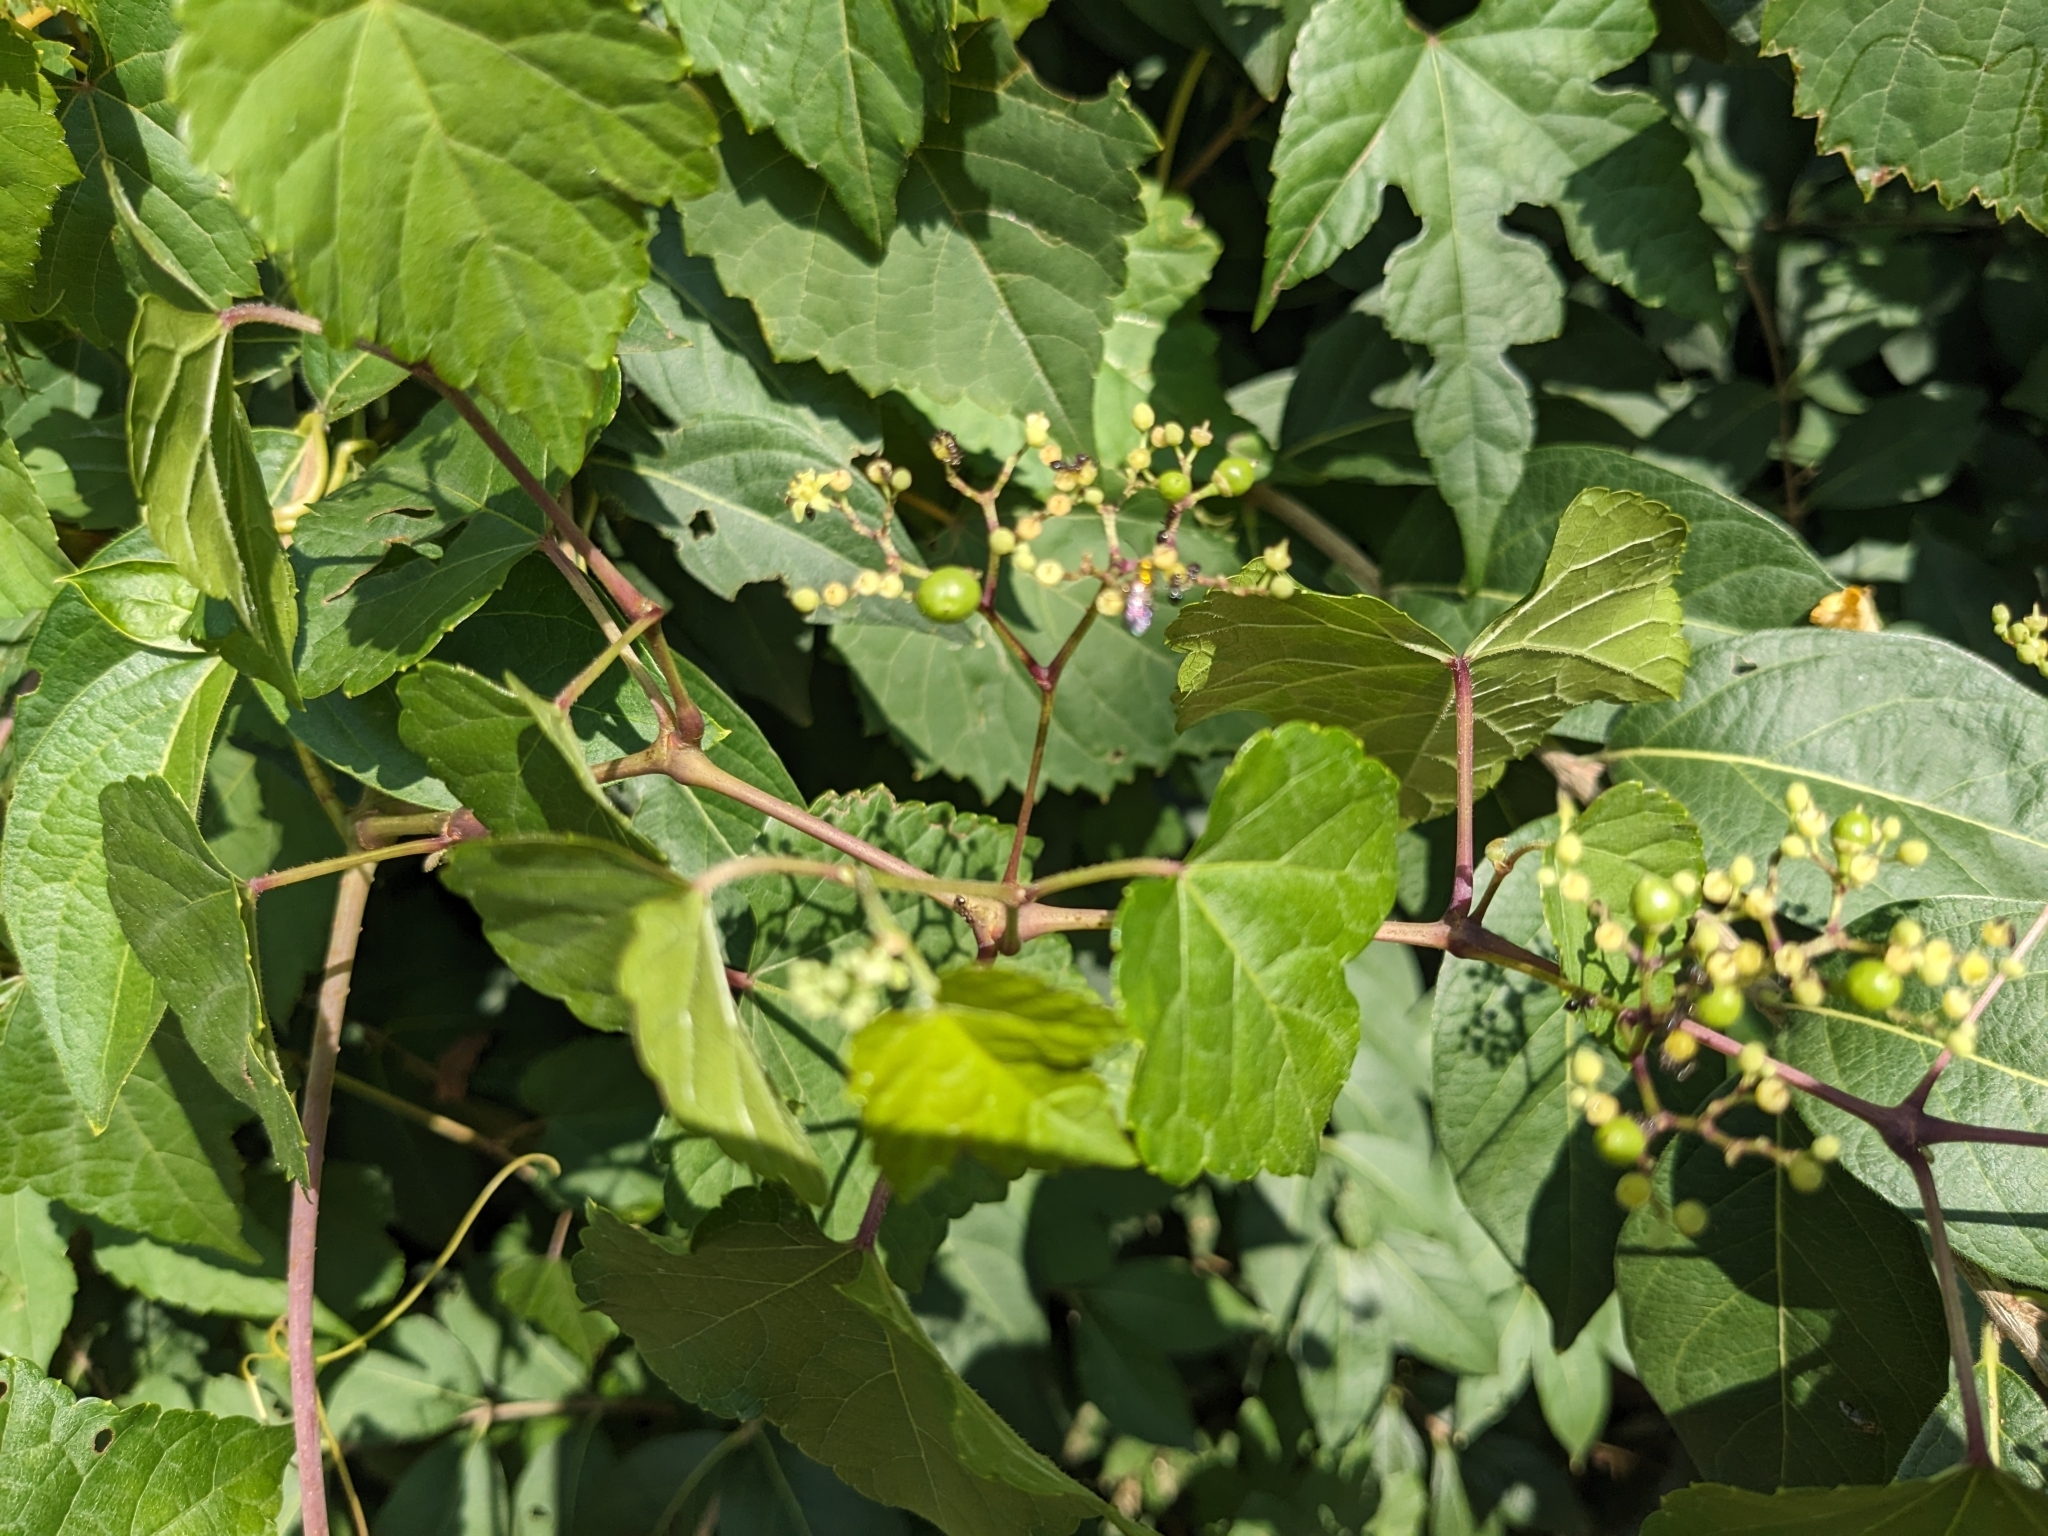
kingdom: Plantae
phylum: Tracheophyta
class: Magnoliopsida
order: Vitales
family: Vitaceae
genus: Ampelopsis
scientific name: Ampelopsis glandulosa
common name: Amur peppervine
